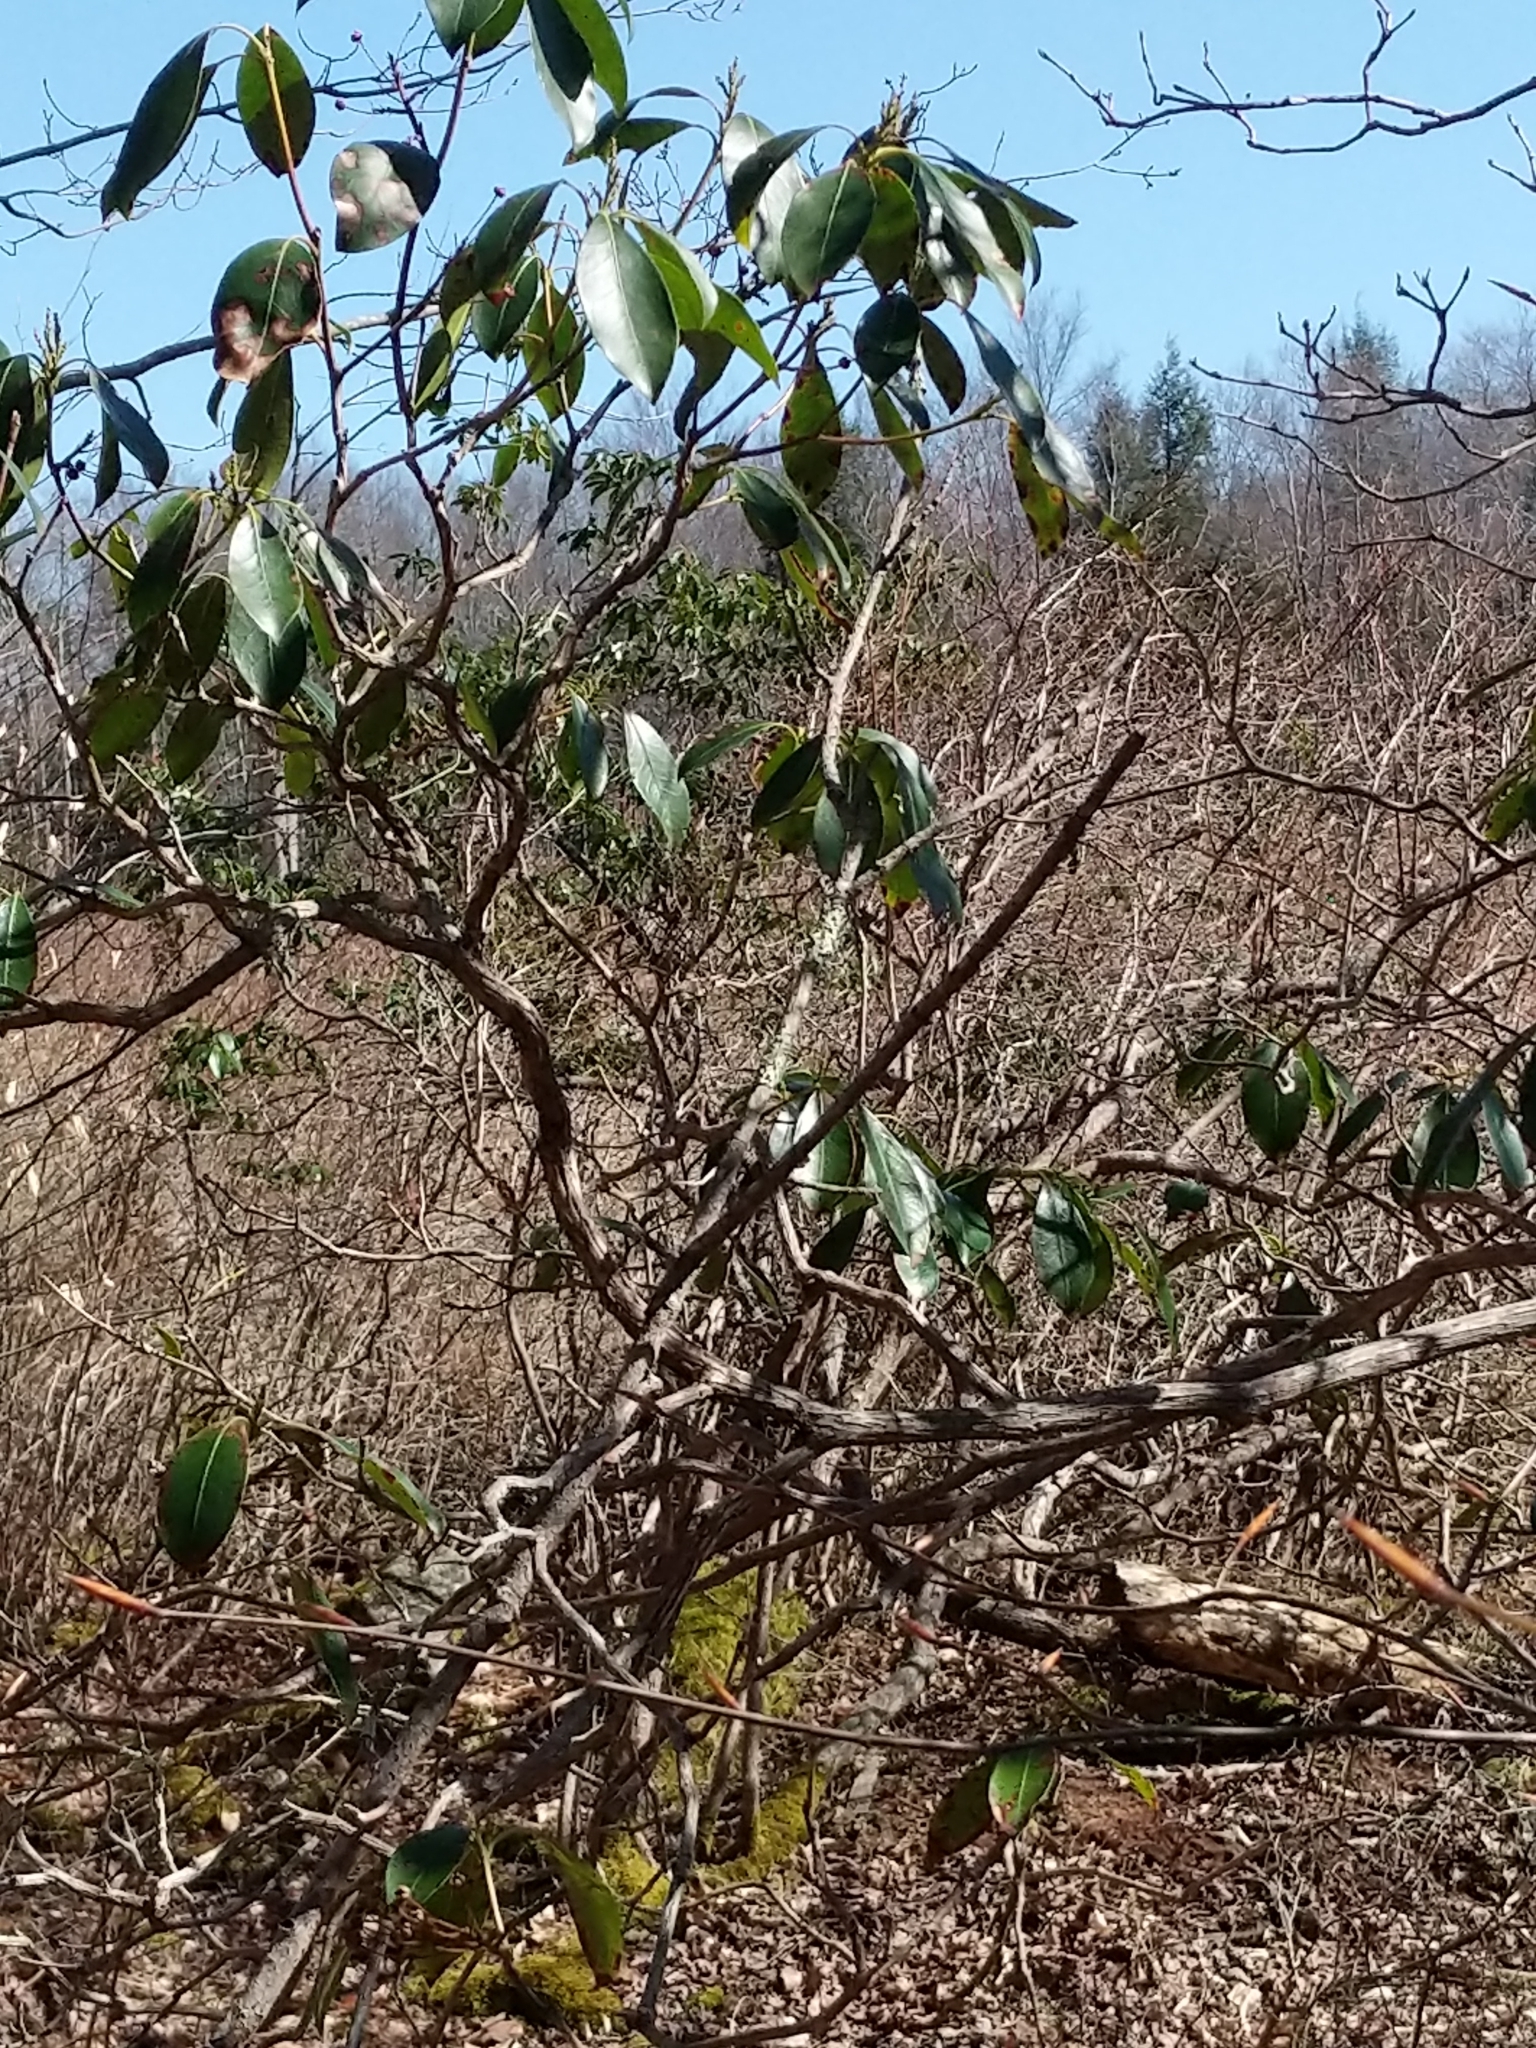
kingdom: Plantae
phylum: Tracheophyta
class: Magnoliopsida
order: Ericales
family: Ericaceae
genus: Kalmia
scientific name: Kalmia latifolia
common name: Mountain-laurel
